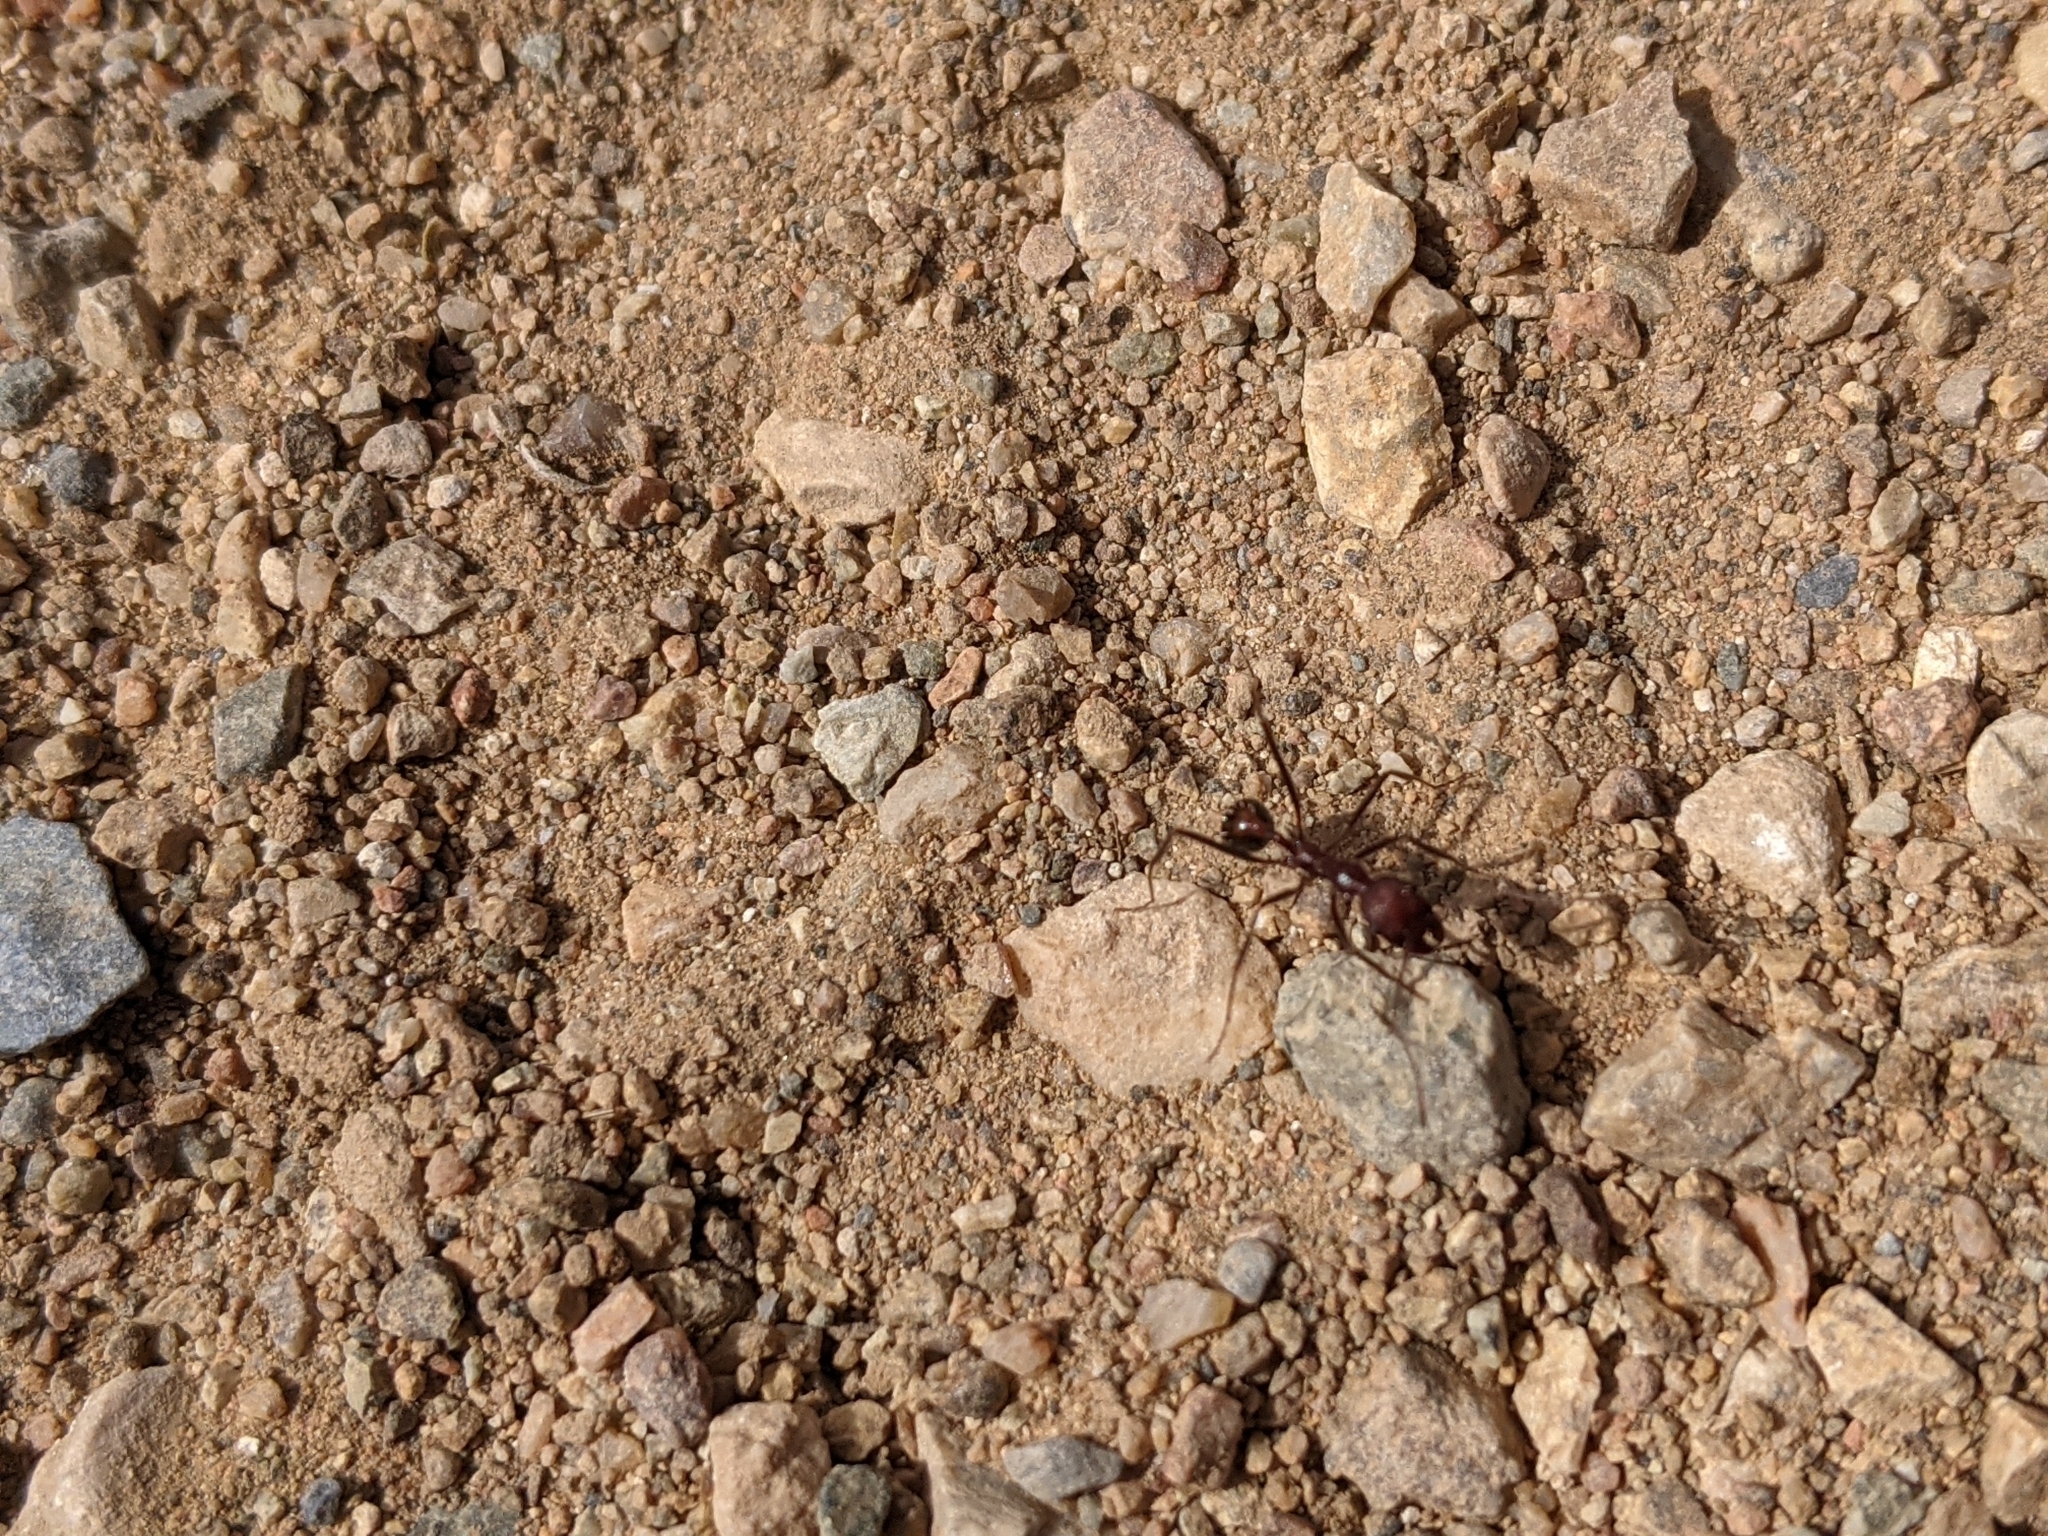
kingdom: Animalia
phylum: Arthropoda
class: Insecta
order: Hymenoptera
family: Formicidae
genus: Novomessor
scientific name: Novomessor albisetosa
